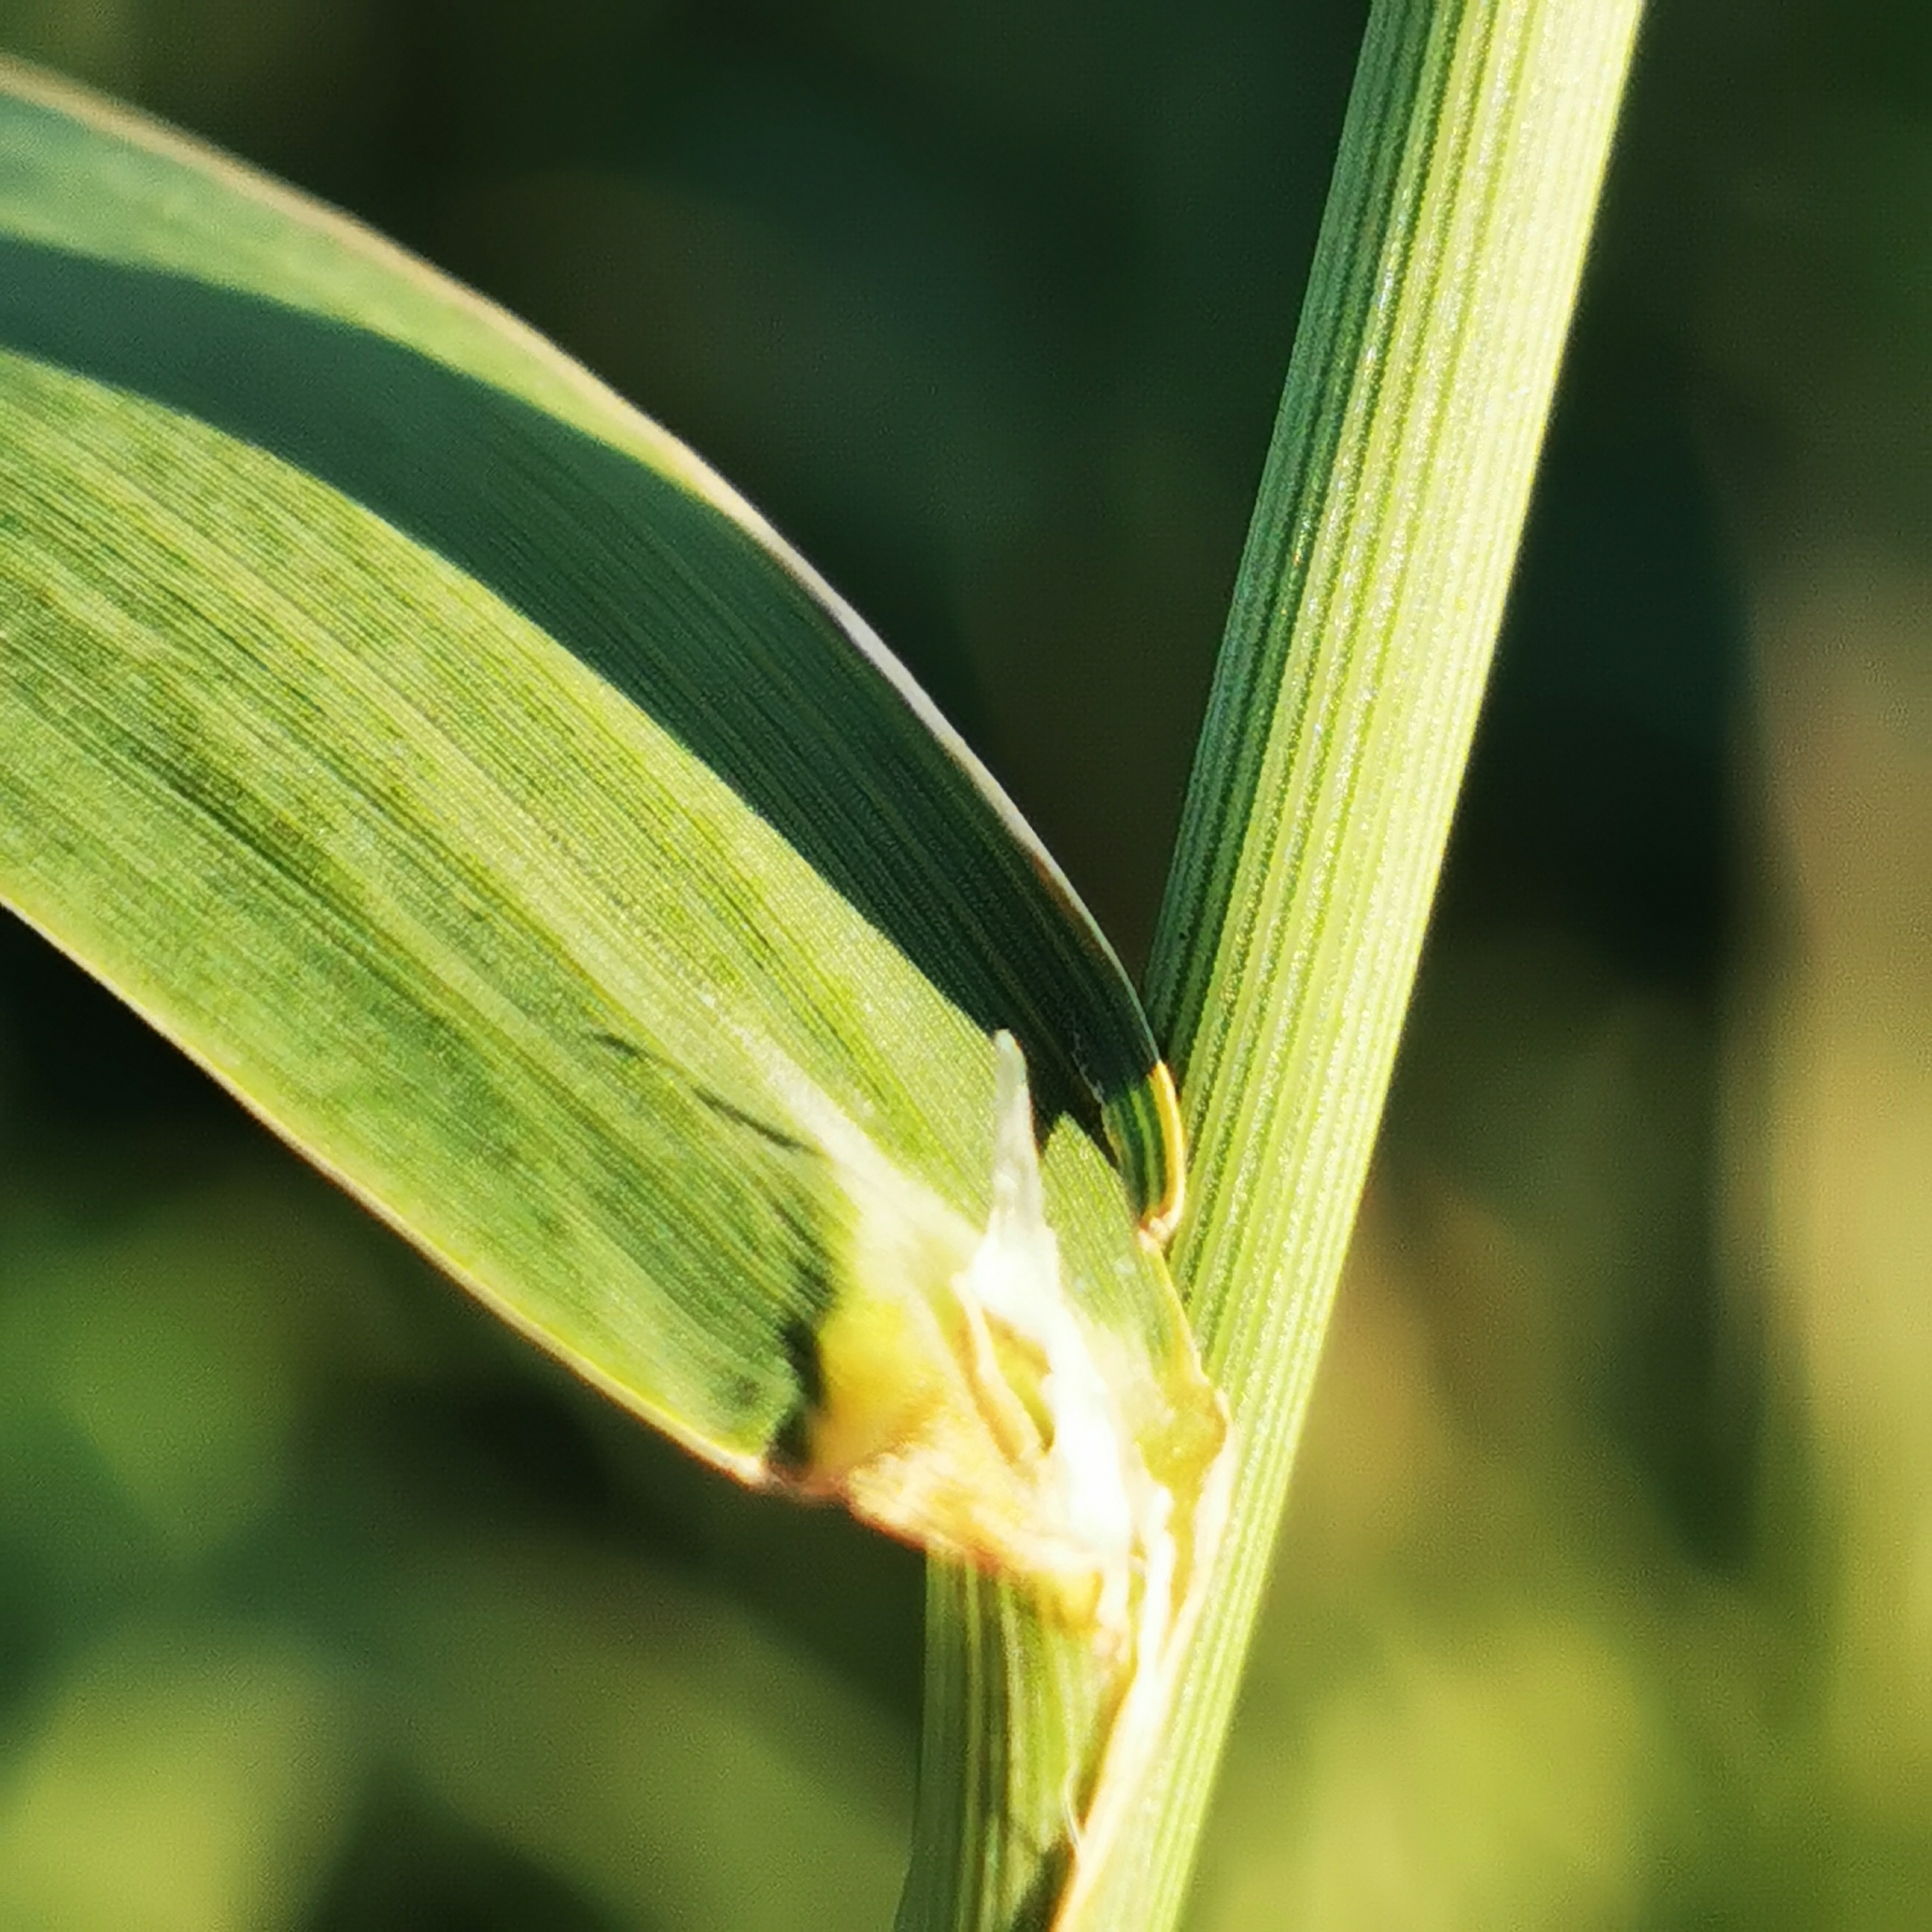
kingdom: Plantae
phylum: Tracheophyta
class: Liliopsida
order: Poales
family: Poaceae
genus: Phalaris
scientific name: Phalaris arundinacea
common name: Reed canary-grass
